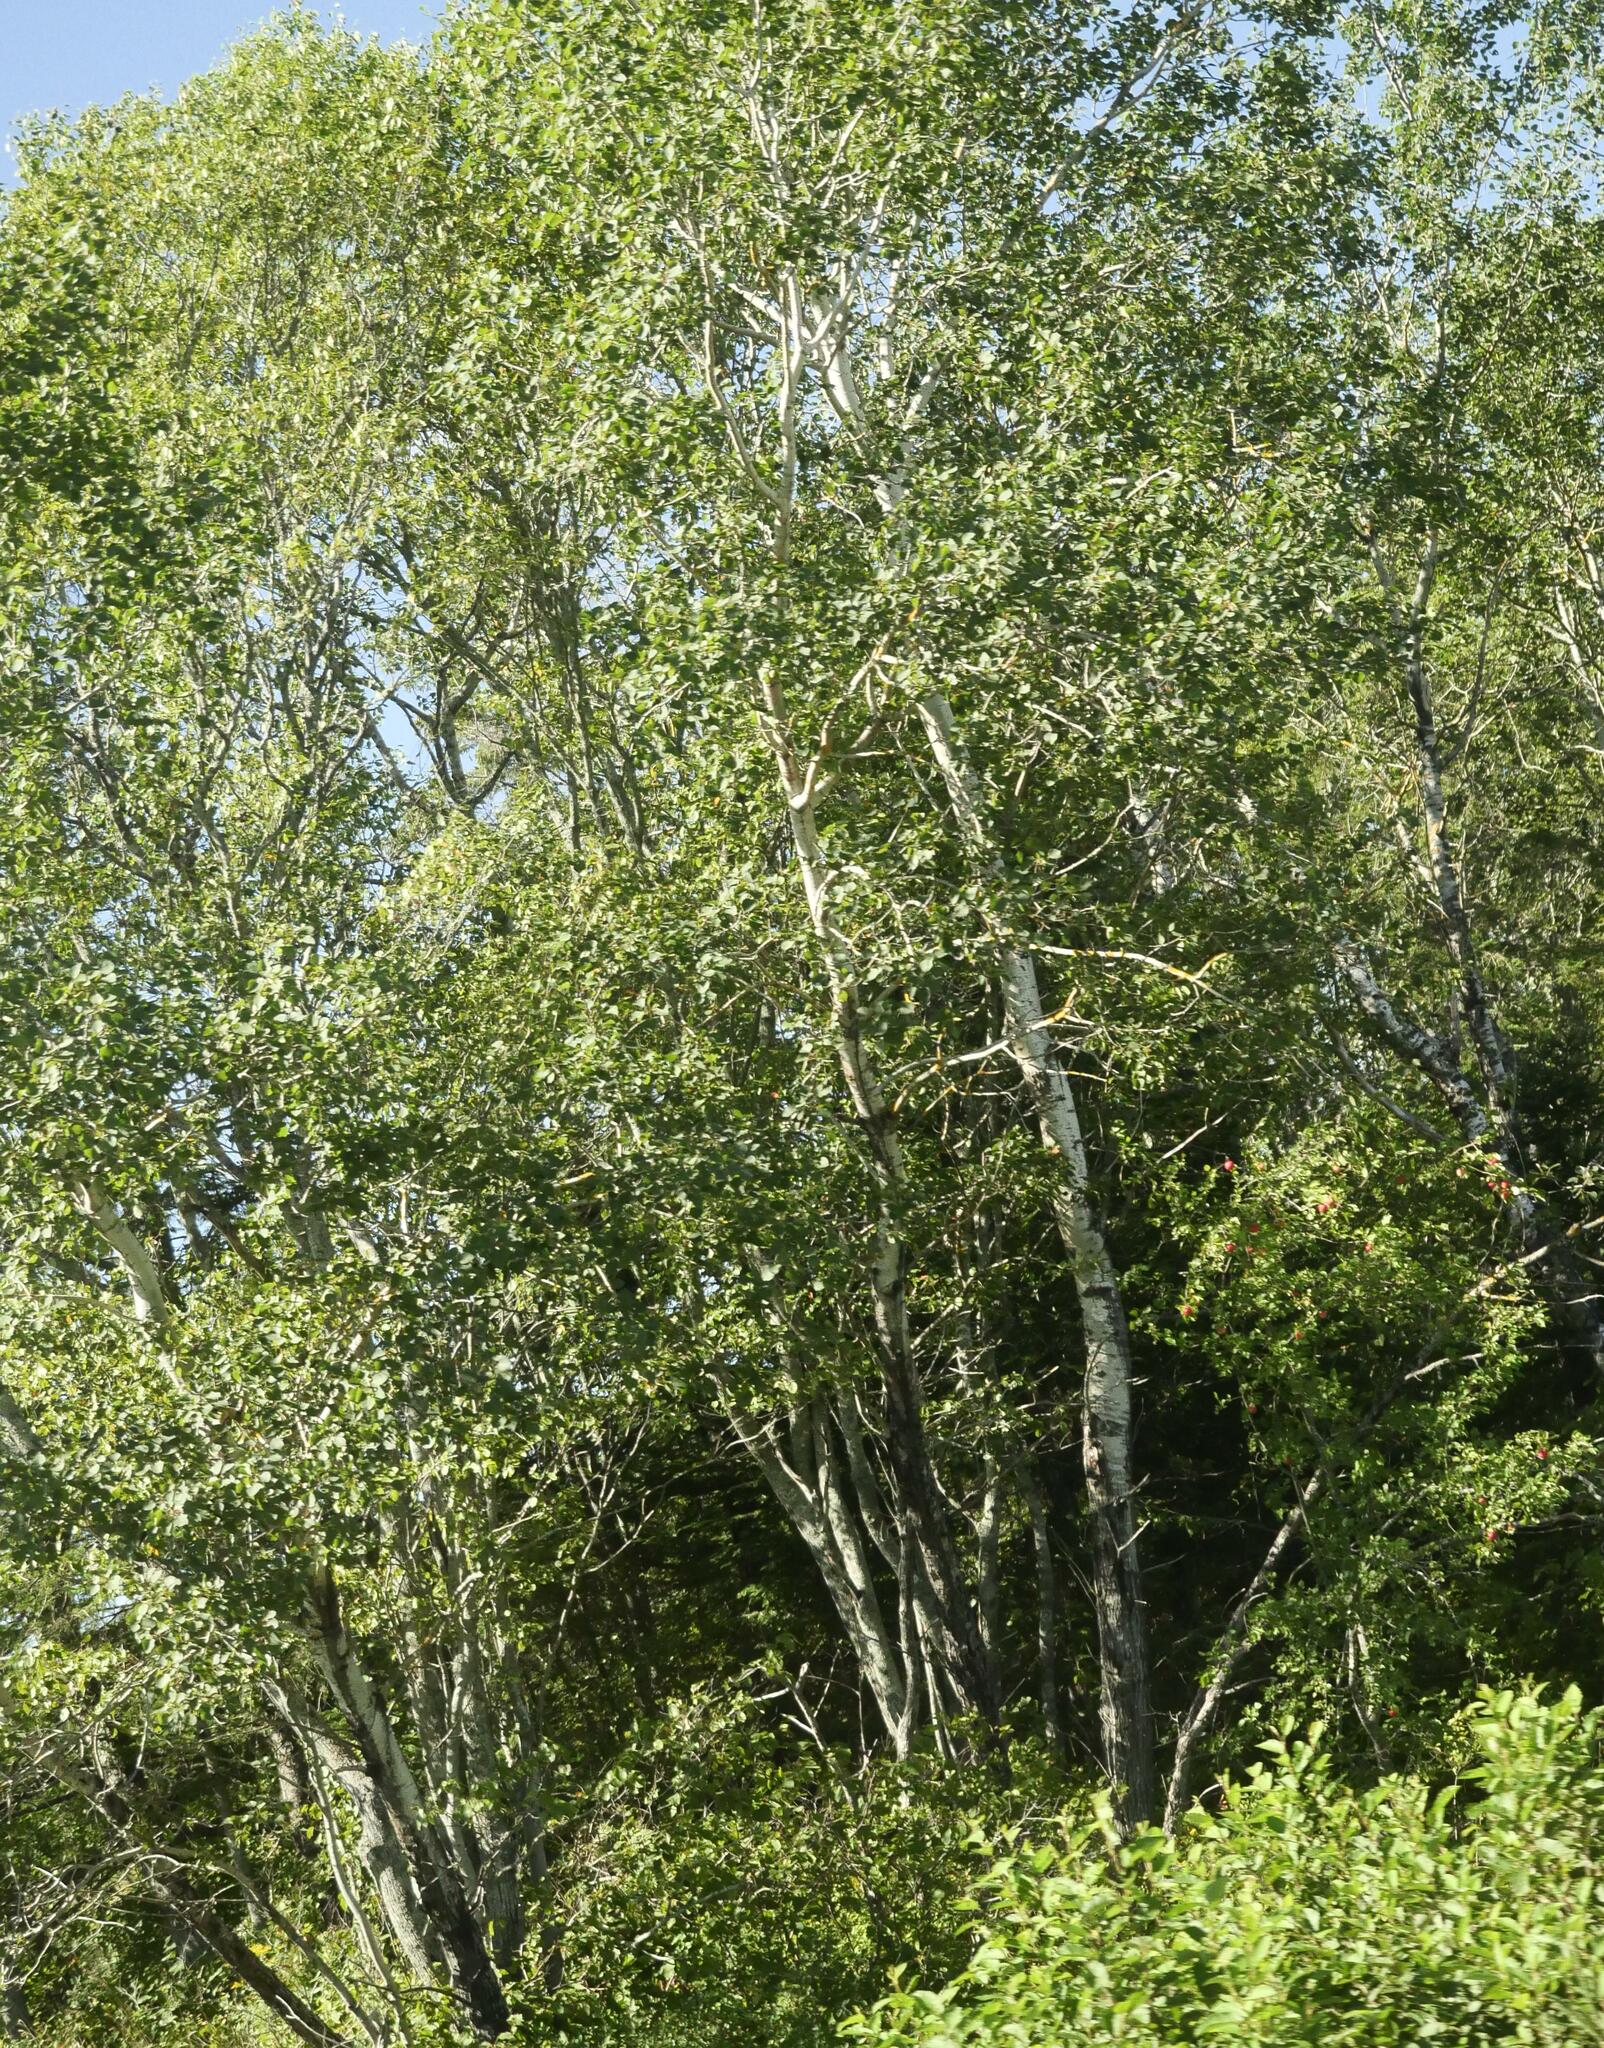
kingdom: Plantae
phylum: Tracheophyta
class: Magnoliopsida
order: Malpighiales
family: Salicaceae
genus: Populus
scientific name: Populus tremuloides
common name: Quaking aspen
